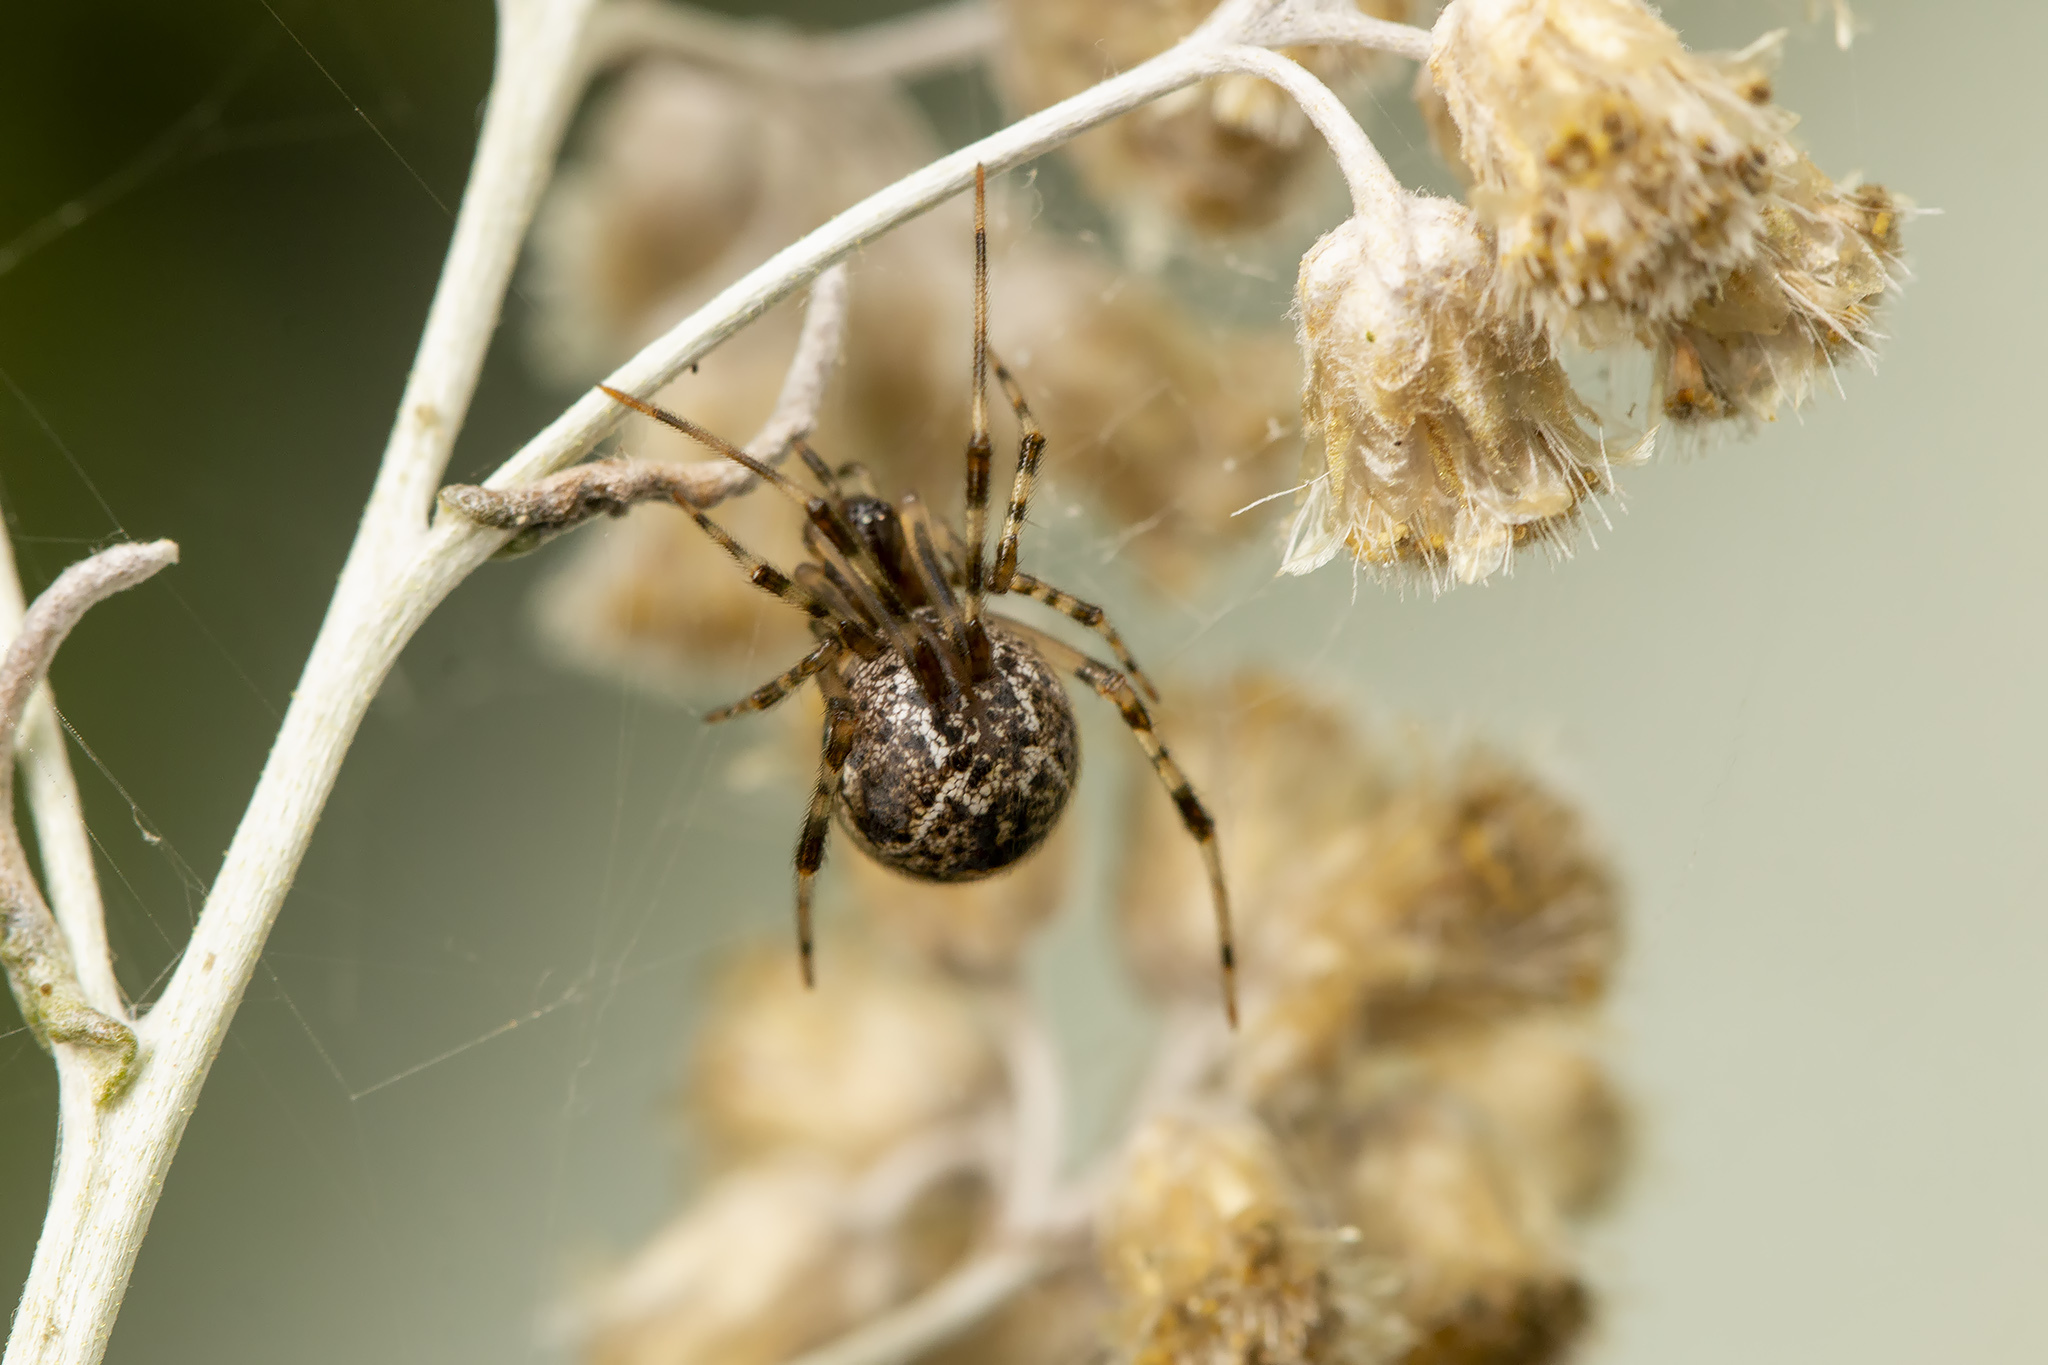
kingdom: Animalia
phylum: Arthropoda
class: Arachnida
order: Araneae
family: Theridiidae
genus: Parasteatoda
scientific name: Parasteatoda tepidariorum
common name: Common house spider
